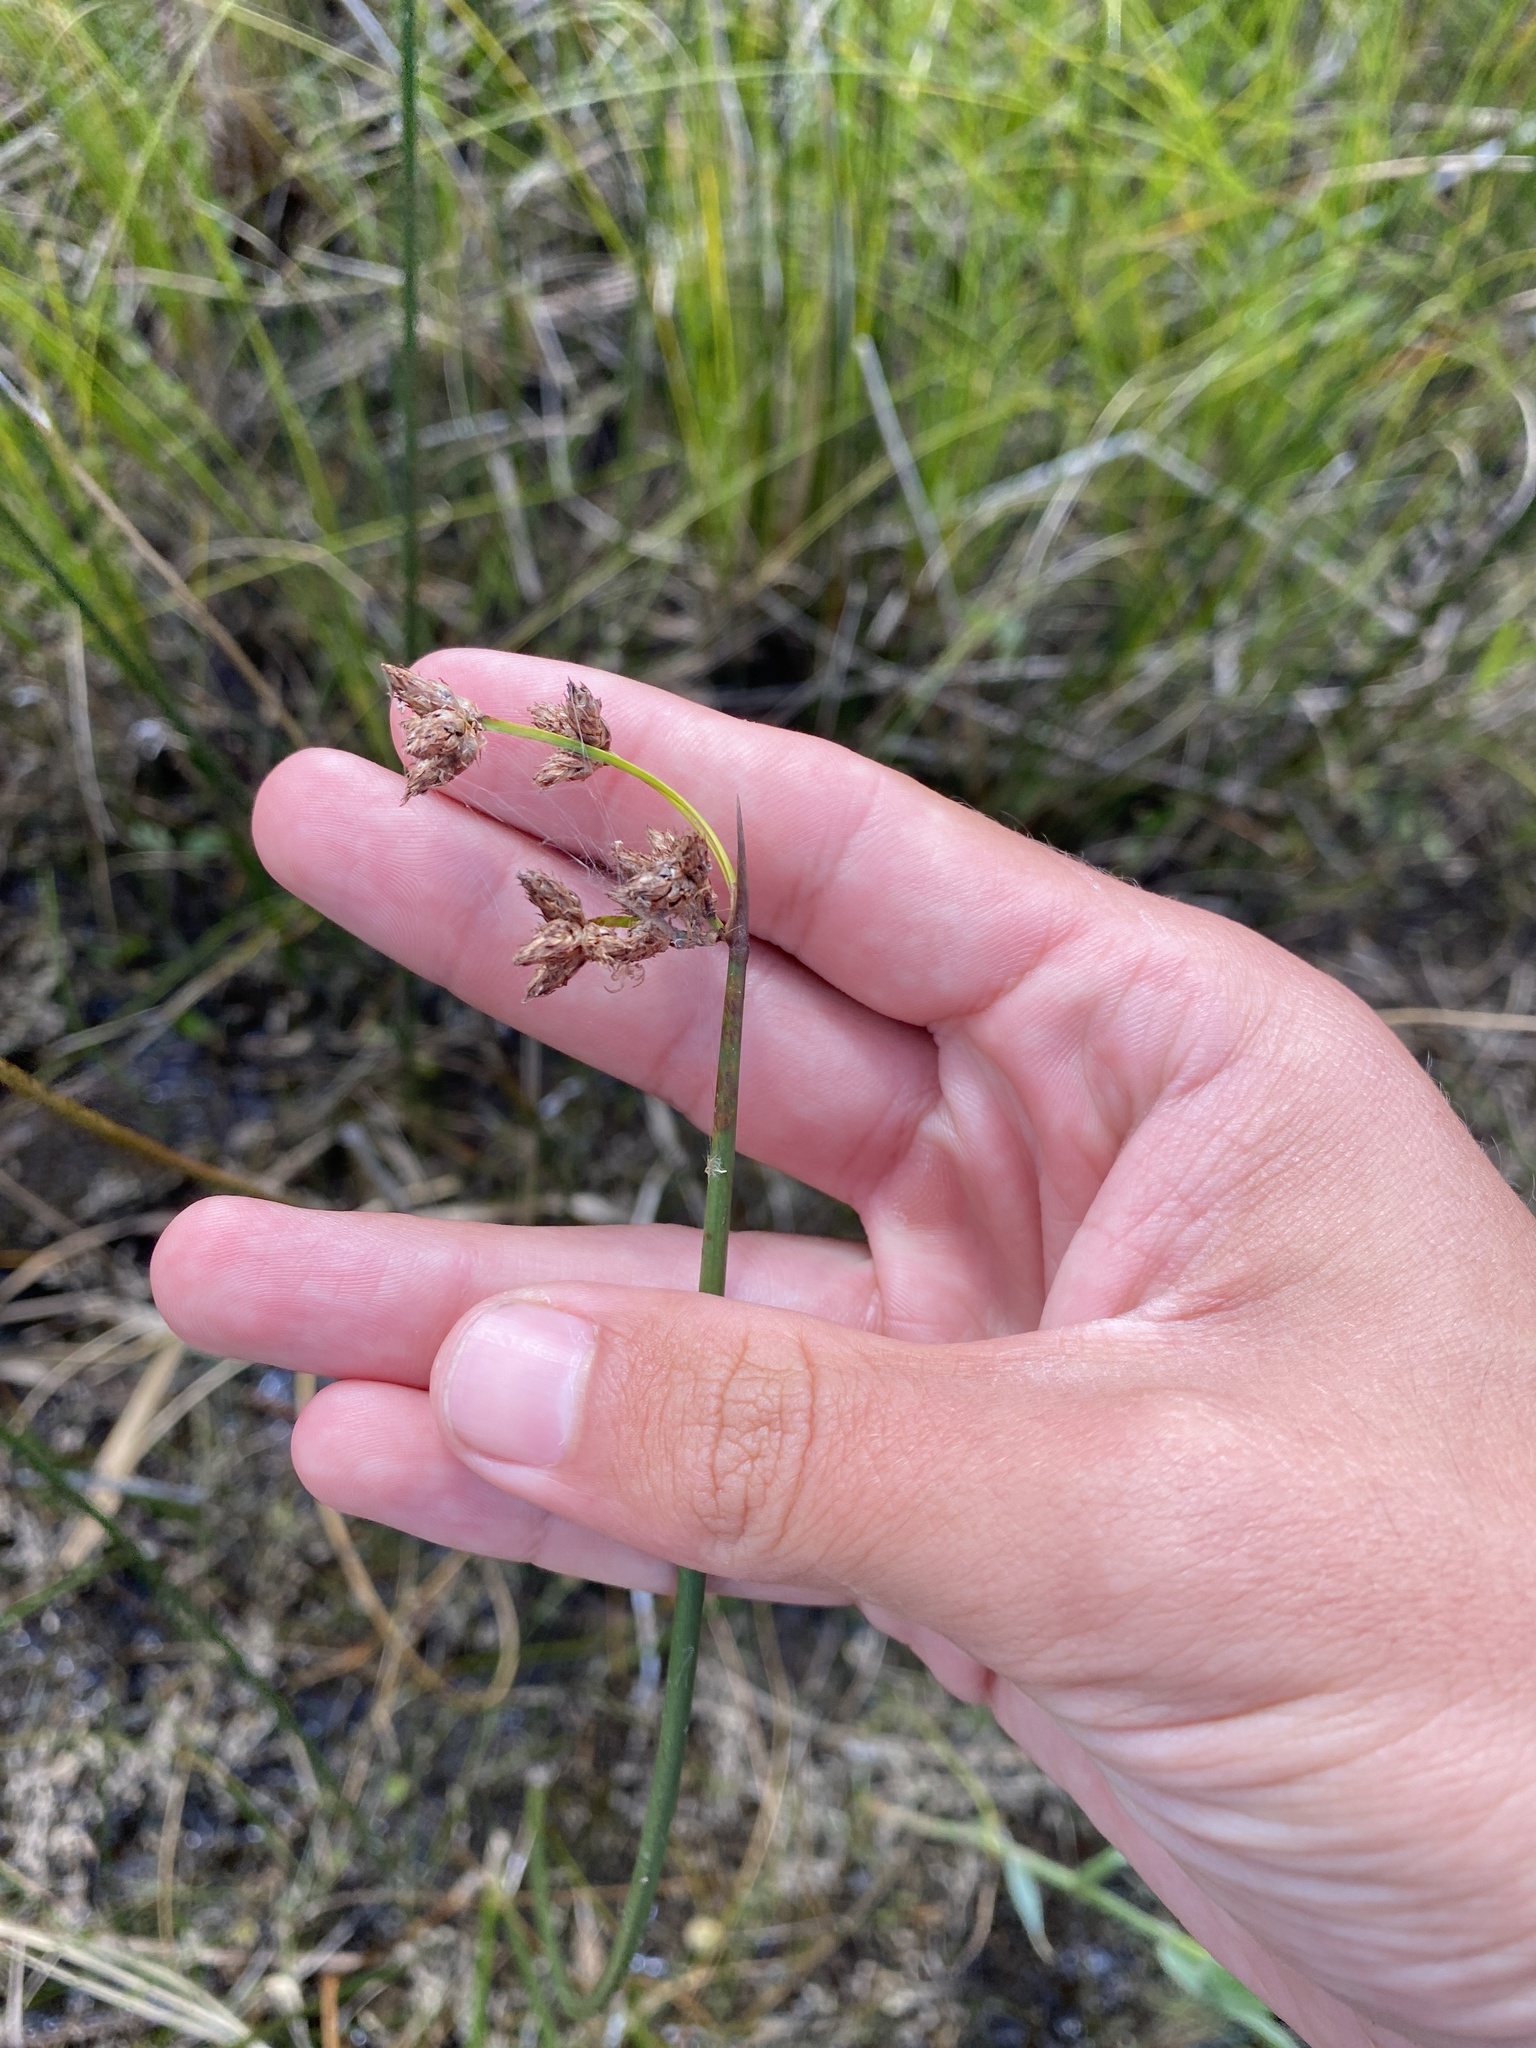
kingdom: Plantae
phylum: Tracheophyta
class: Liliopsida
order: Poales
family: Cyperaceae
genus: Schoenoplectus
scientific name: Schoenoplectus acutus
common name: Hardstem bulrush
